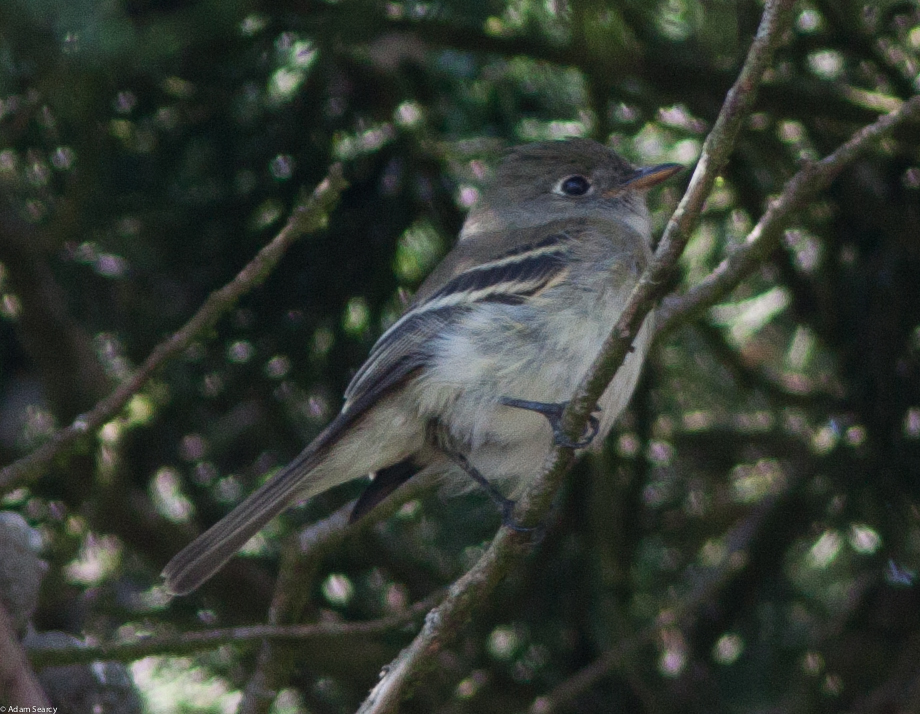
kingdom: Animalia
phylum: Chordata
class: Aves
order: Passeriformes
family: Tyrannidae
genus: Empidonax
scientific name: Empidonax minimus
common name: Least flycatcher
